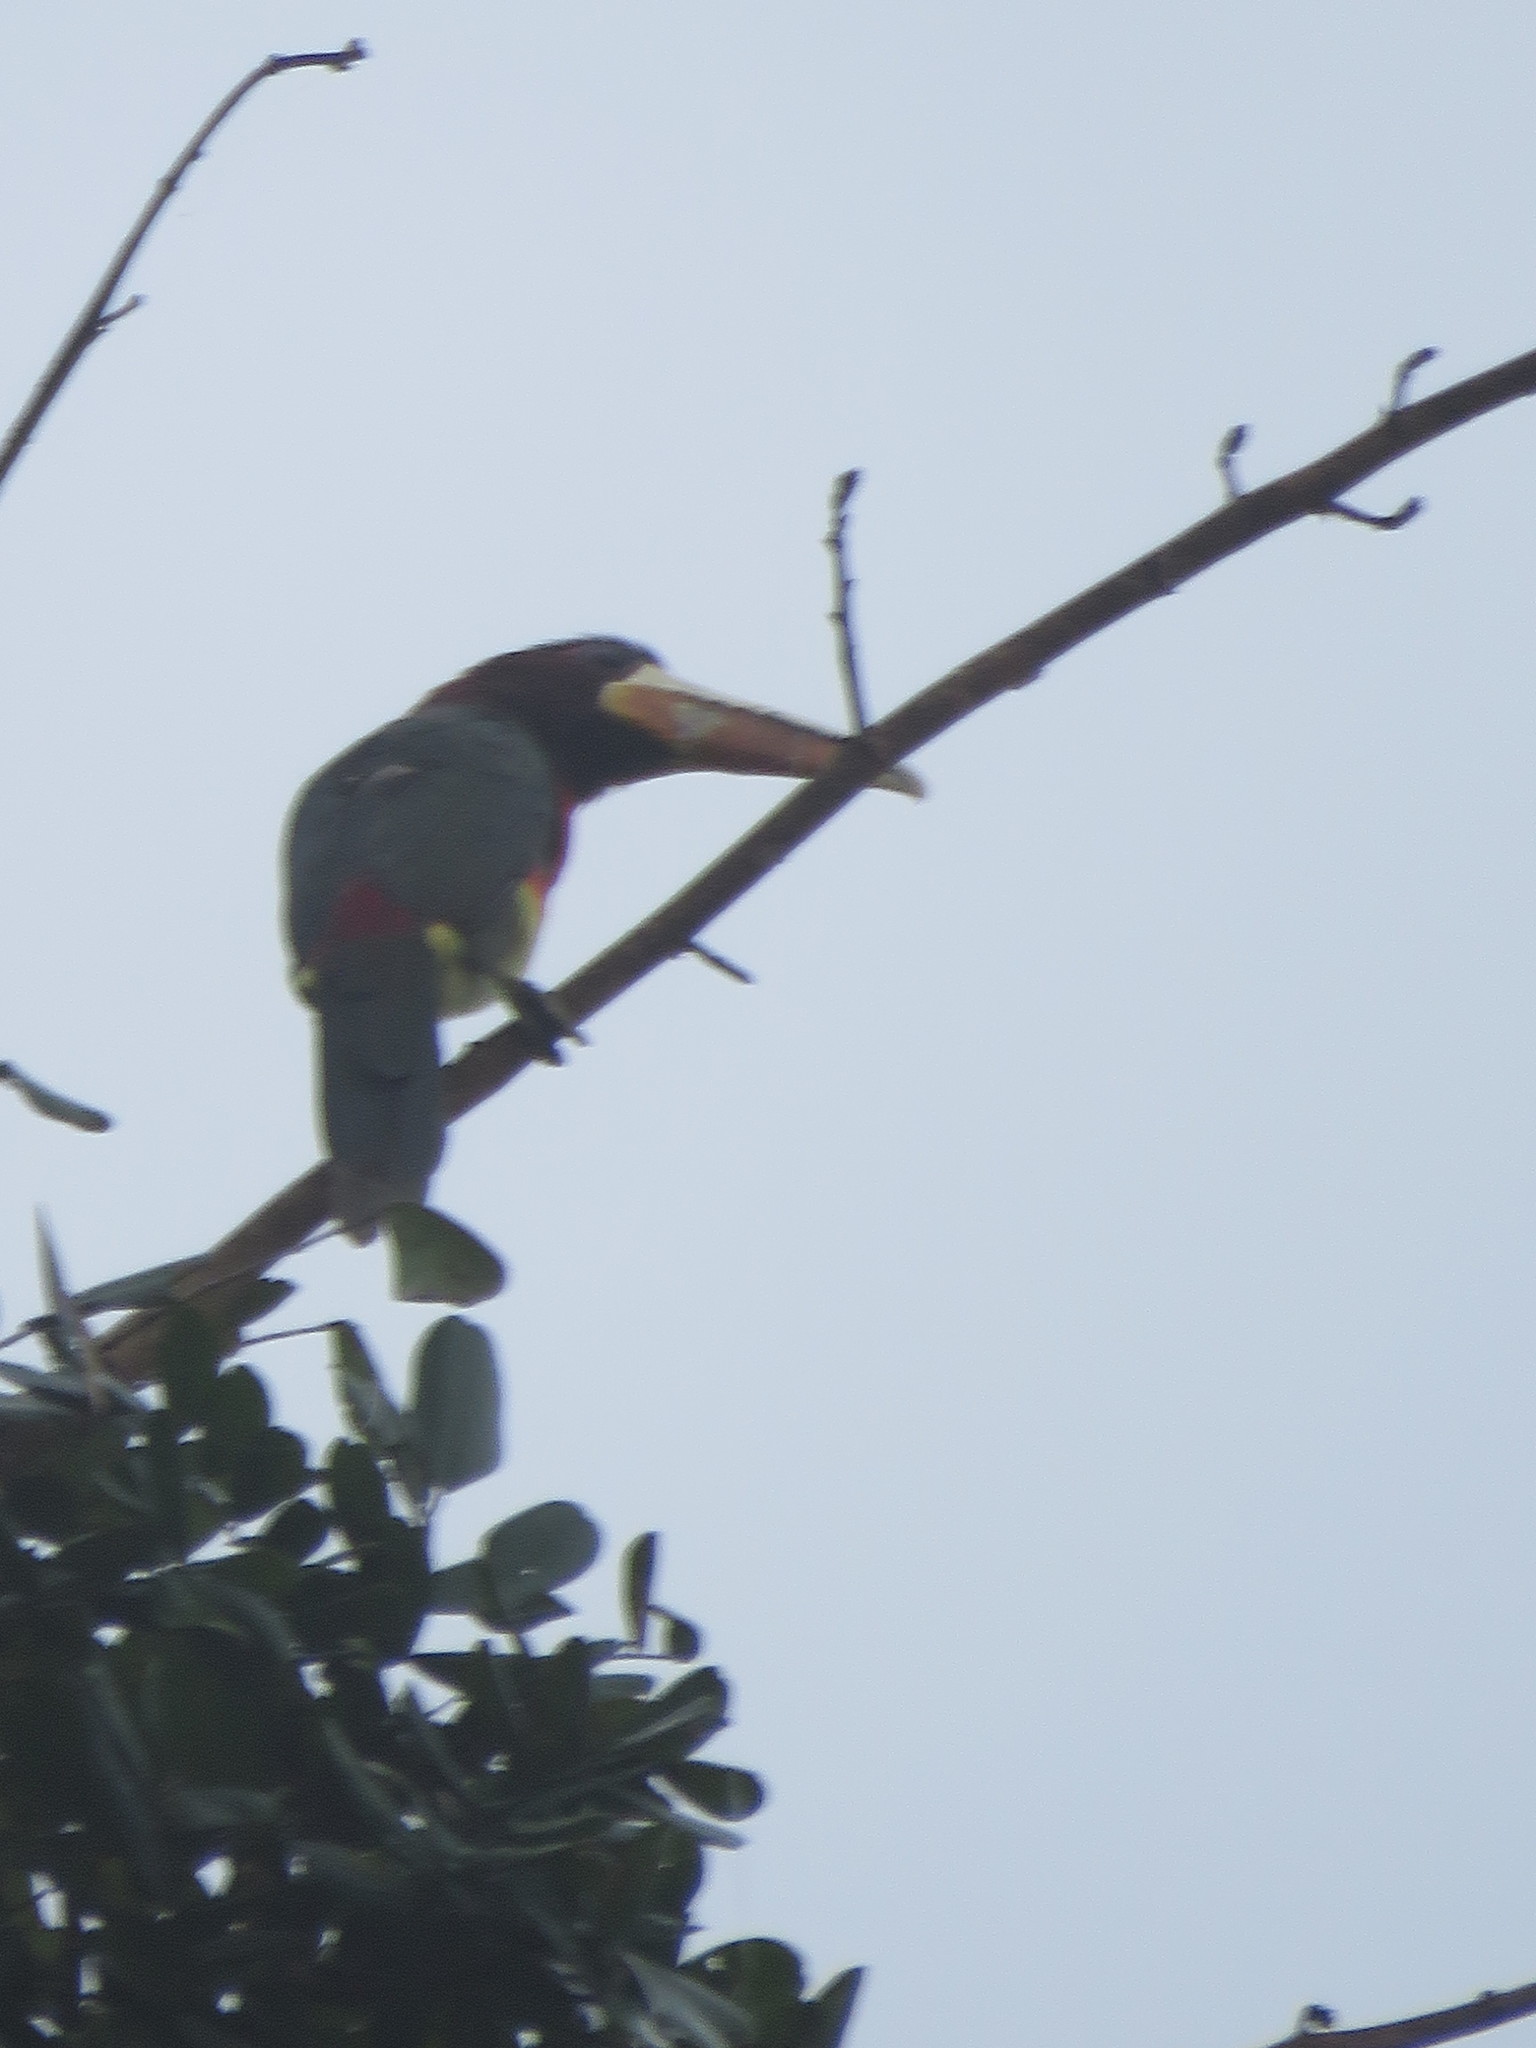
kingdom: Animalia
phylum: Chordata
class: Aves
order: Piciformes
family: Ramphastidae
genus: Pteroglossus
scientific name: Pteroglossus azara
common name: Ivory-billed aracari
